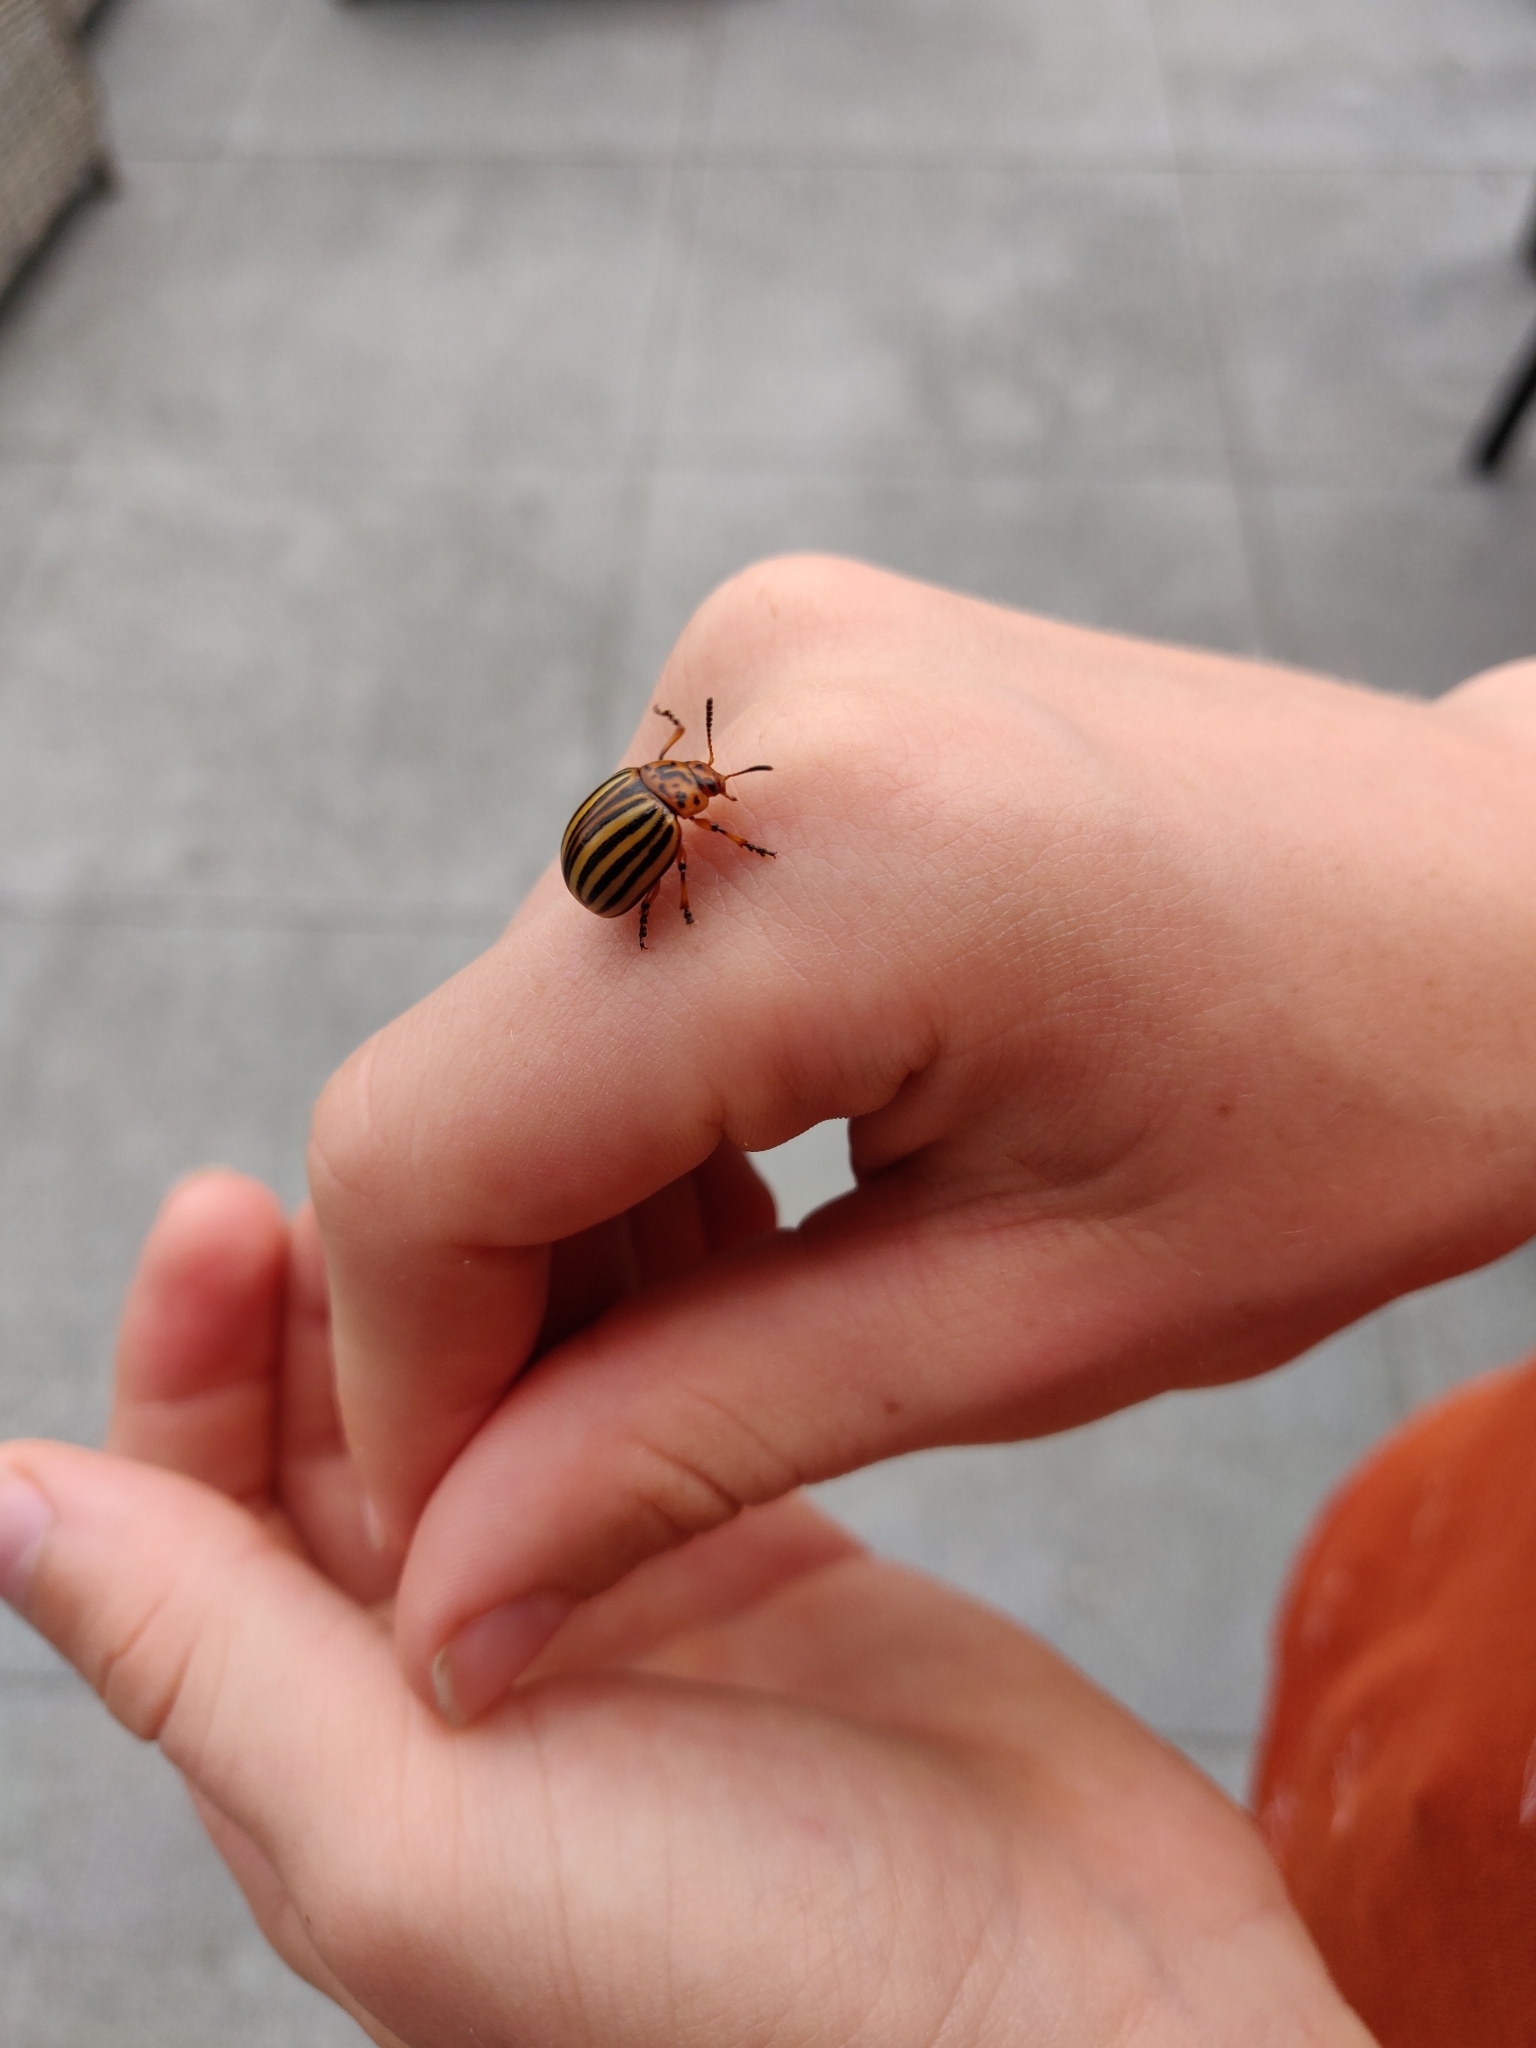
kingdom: Animalia
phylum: Arthropoda
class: Insecta
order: Coleoptera
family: Chrysomelidae
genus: Leptinotarsa
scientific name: Leptinotarsa decemlineata
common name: Colorado potato beetle
